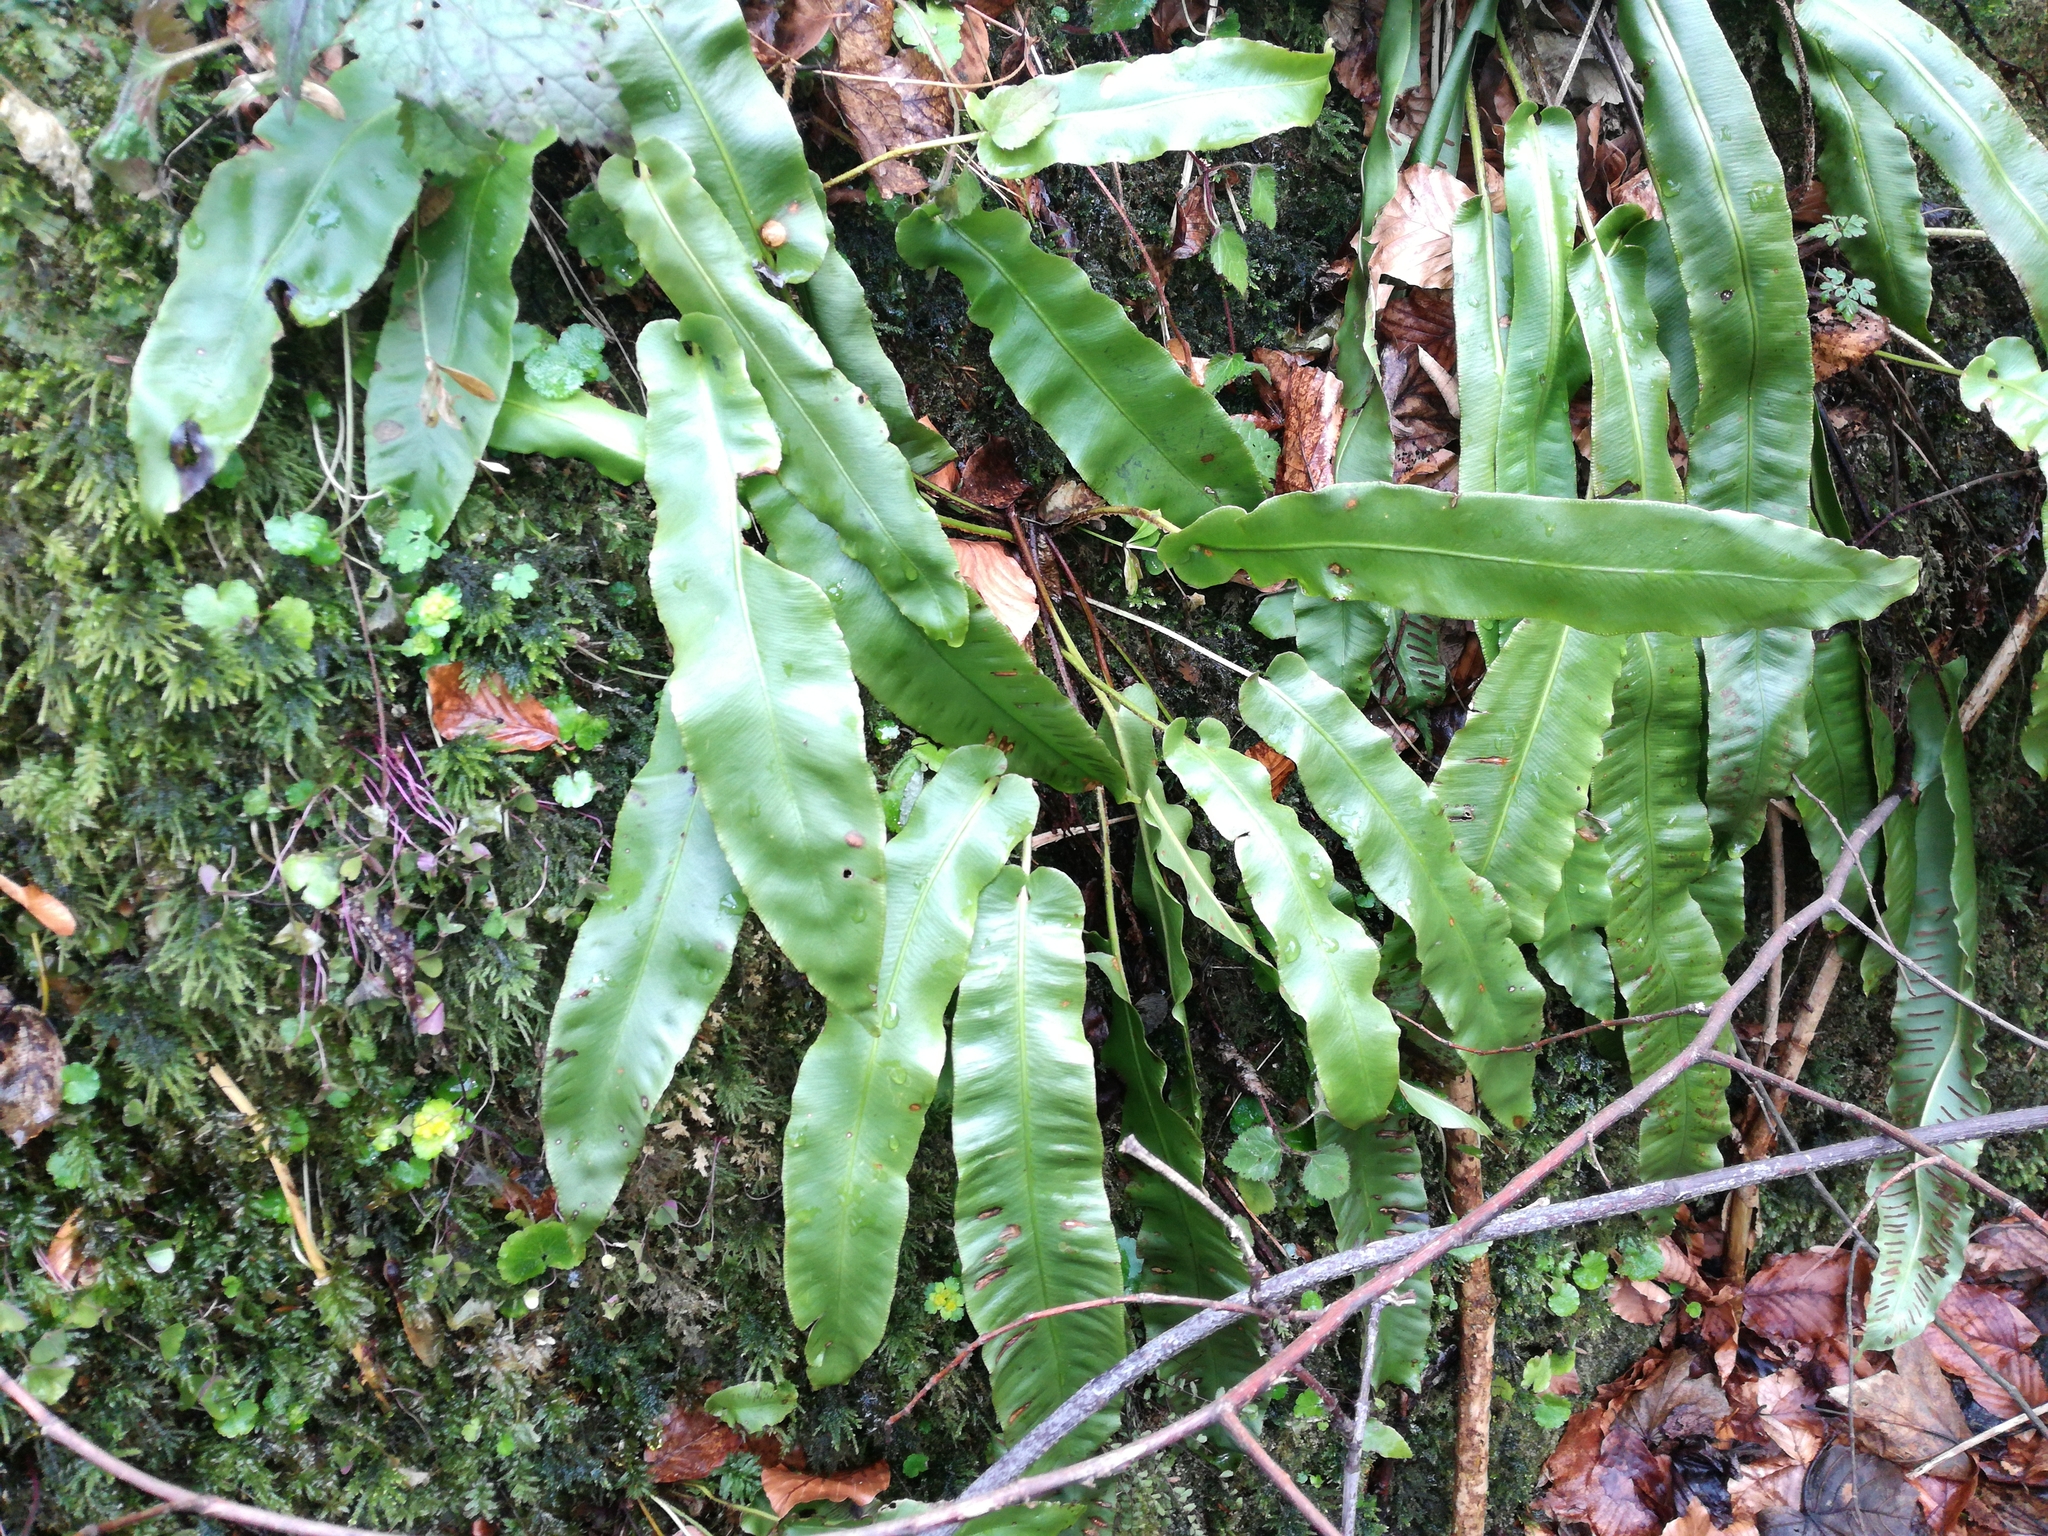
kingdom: Plantae
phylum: Tracheophyta
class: Polypodiopsida
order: Polypodiales
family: Aspleniaceae
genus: Asplenium
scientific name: Asplenium scolopendrium
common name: Hart's-tongue fern
